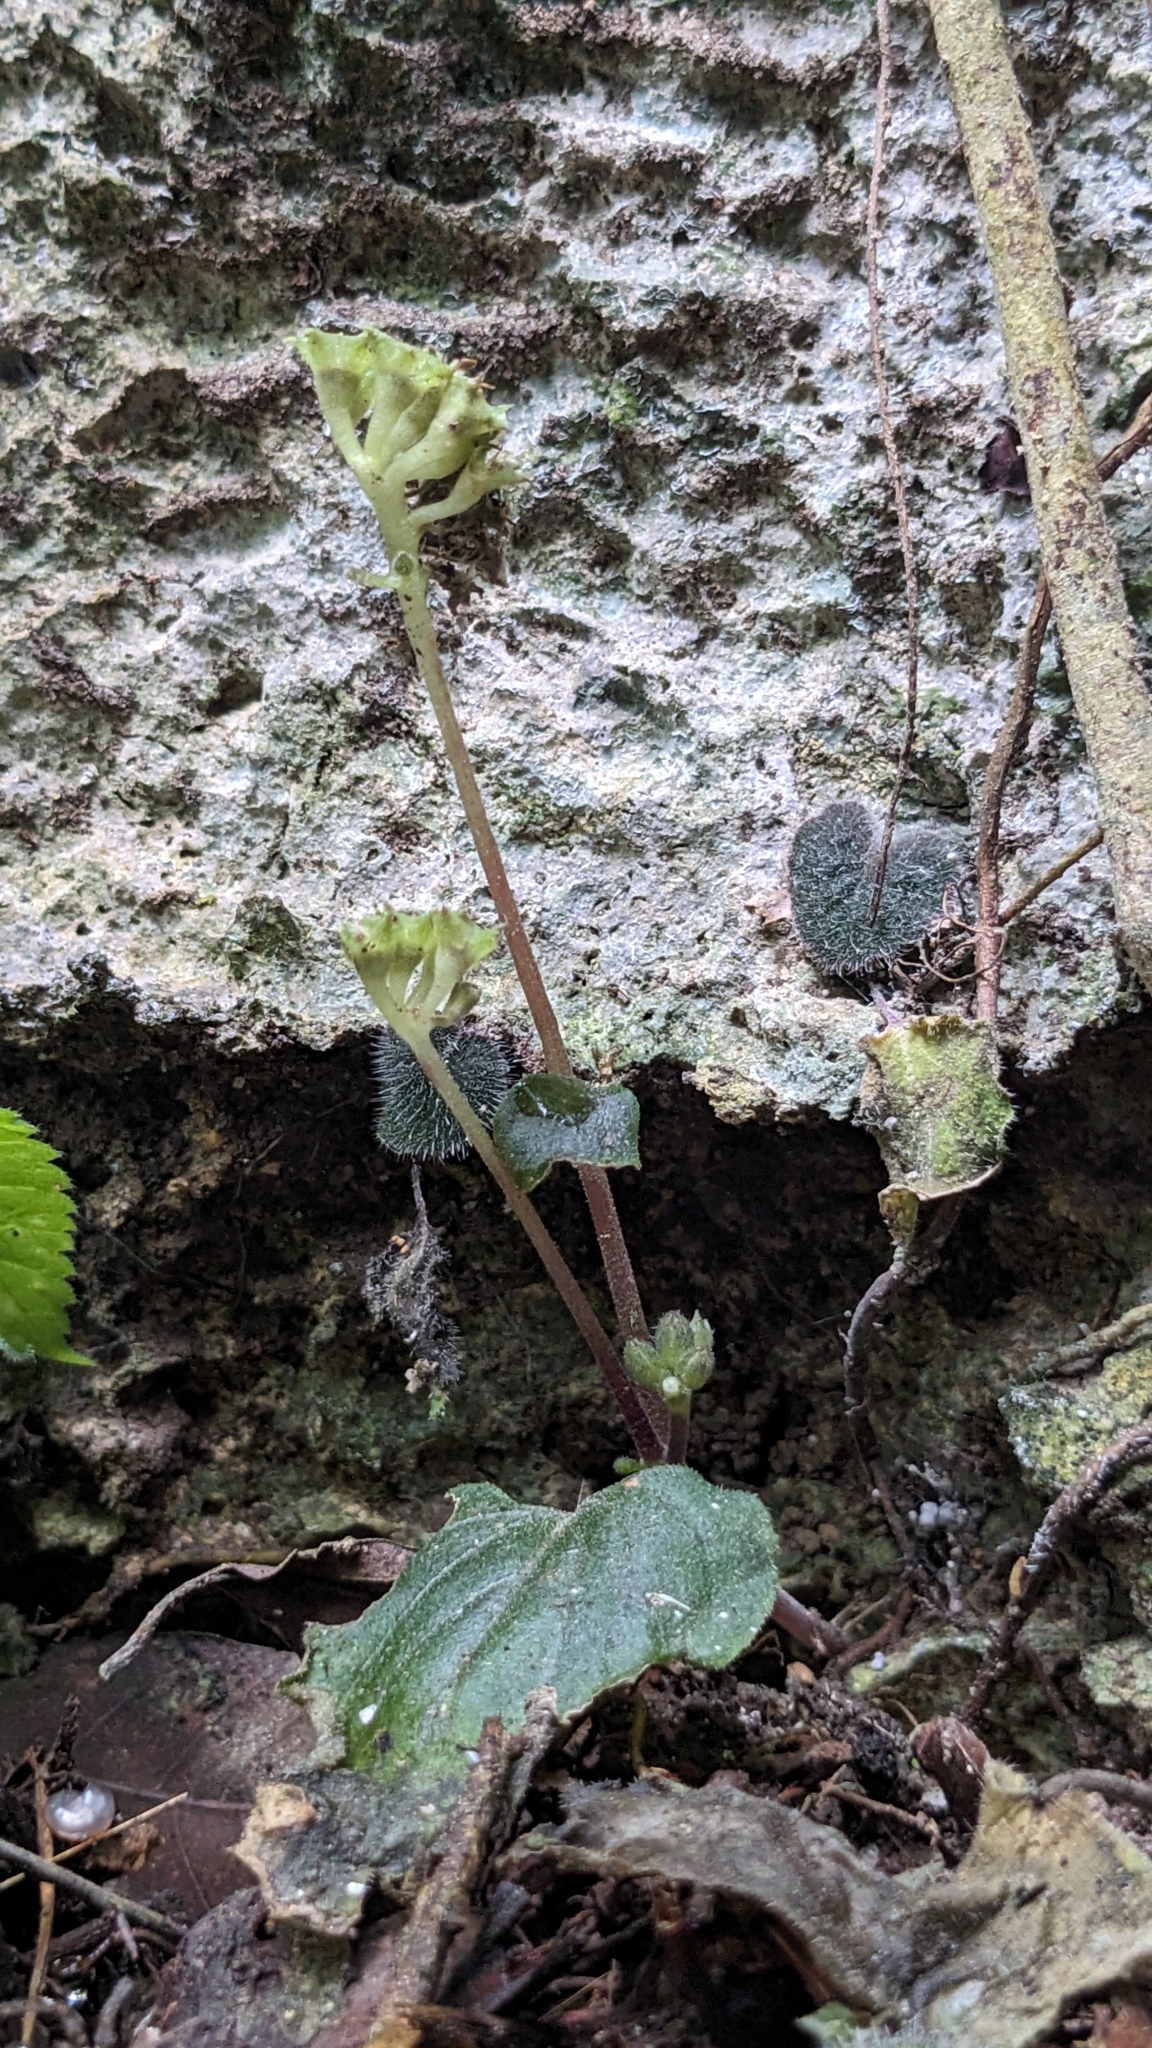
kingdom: Plantae
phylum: Tracheophyta
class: Magnoliopsida
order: Lamiales
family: Gesneriaceae
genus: Epithema
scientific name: Epithema ceylanicum
